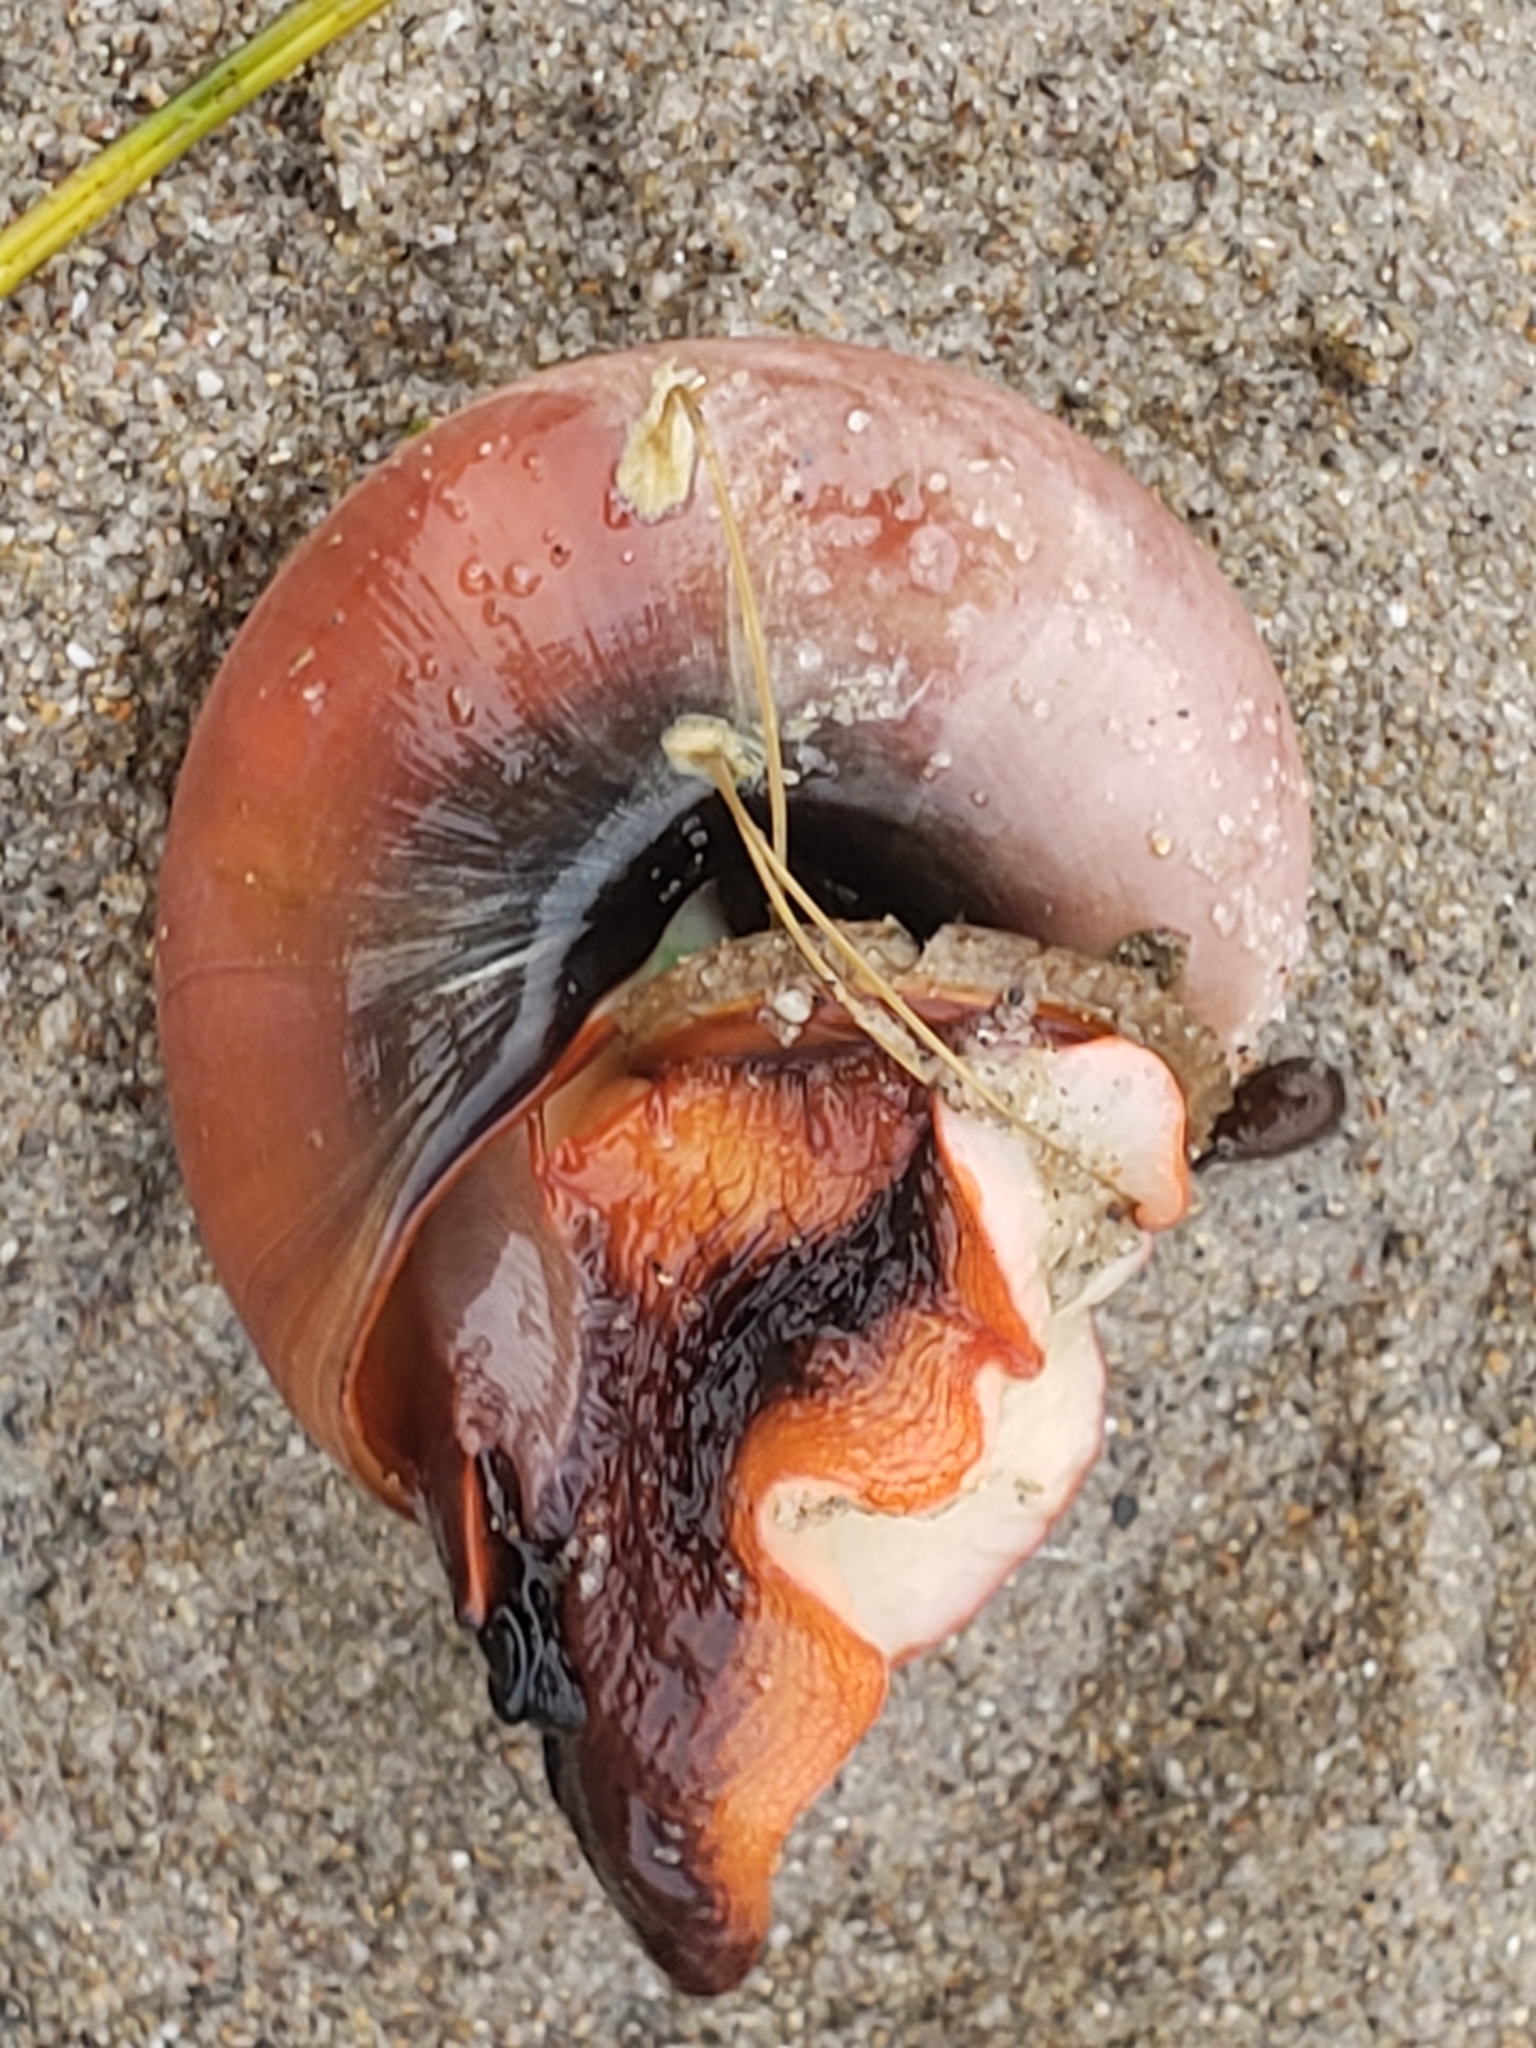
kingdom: Animalia
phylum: Mollusca
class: Gastropoda
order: Trochida
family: Tegulidae
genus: Norrisia
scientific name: Norrisia norrisii
